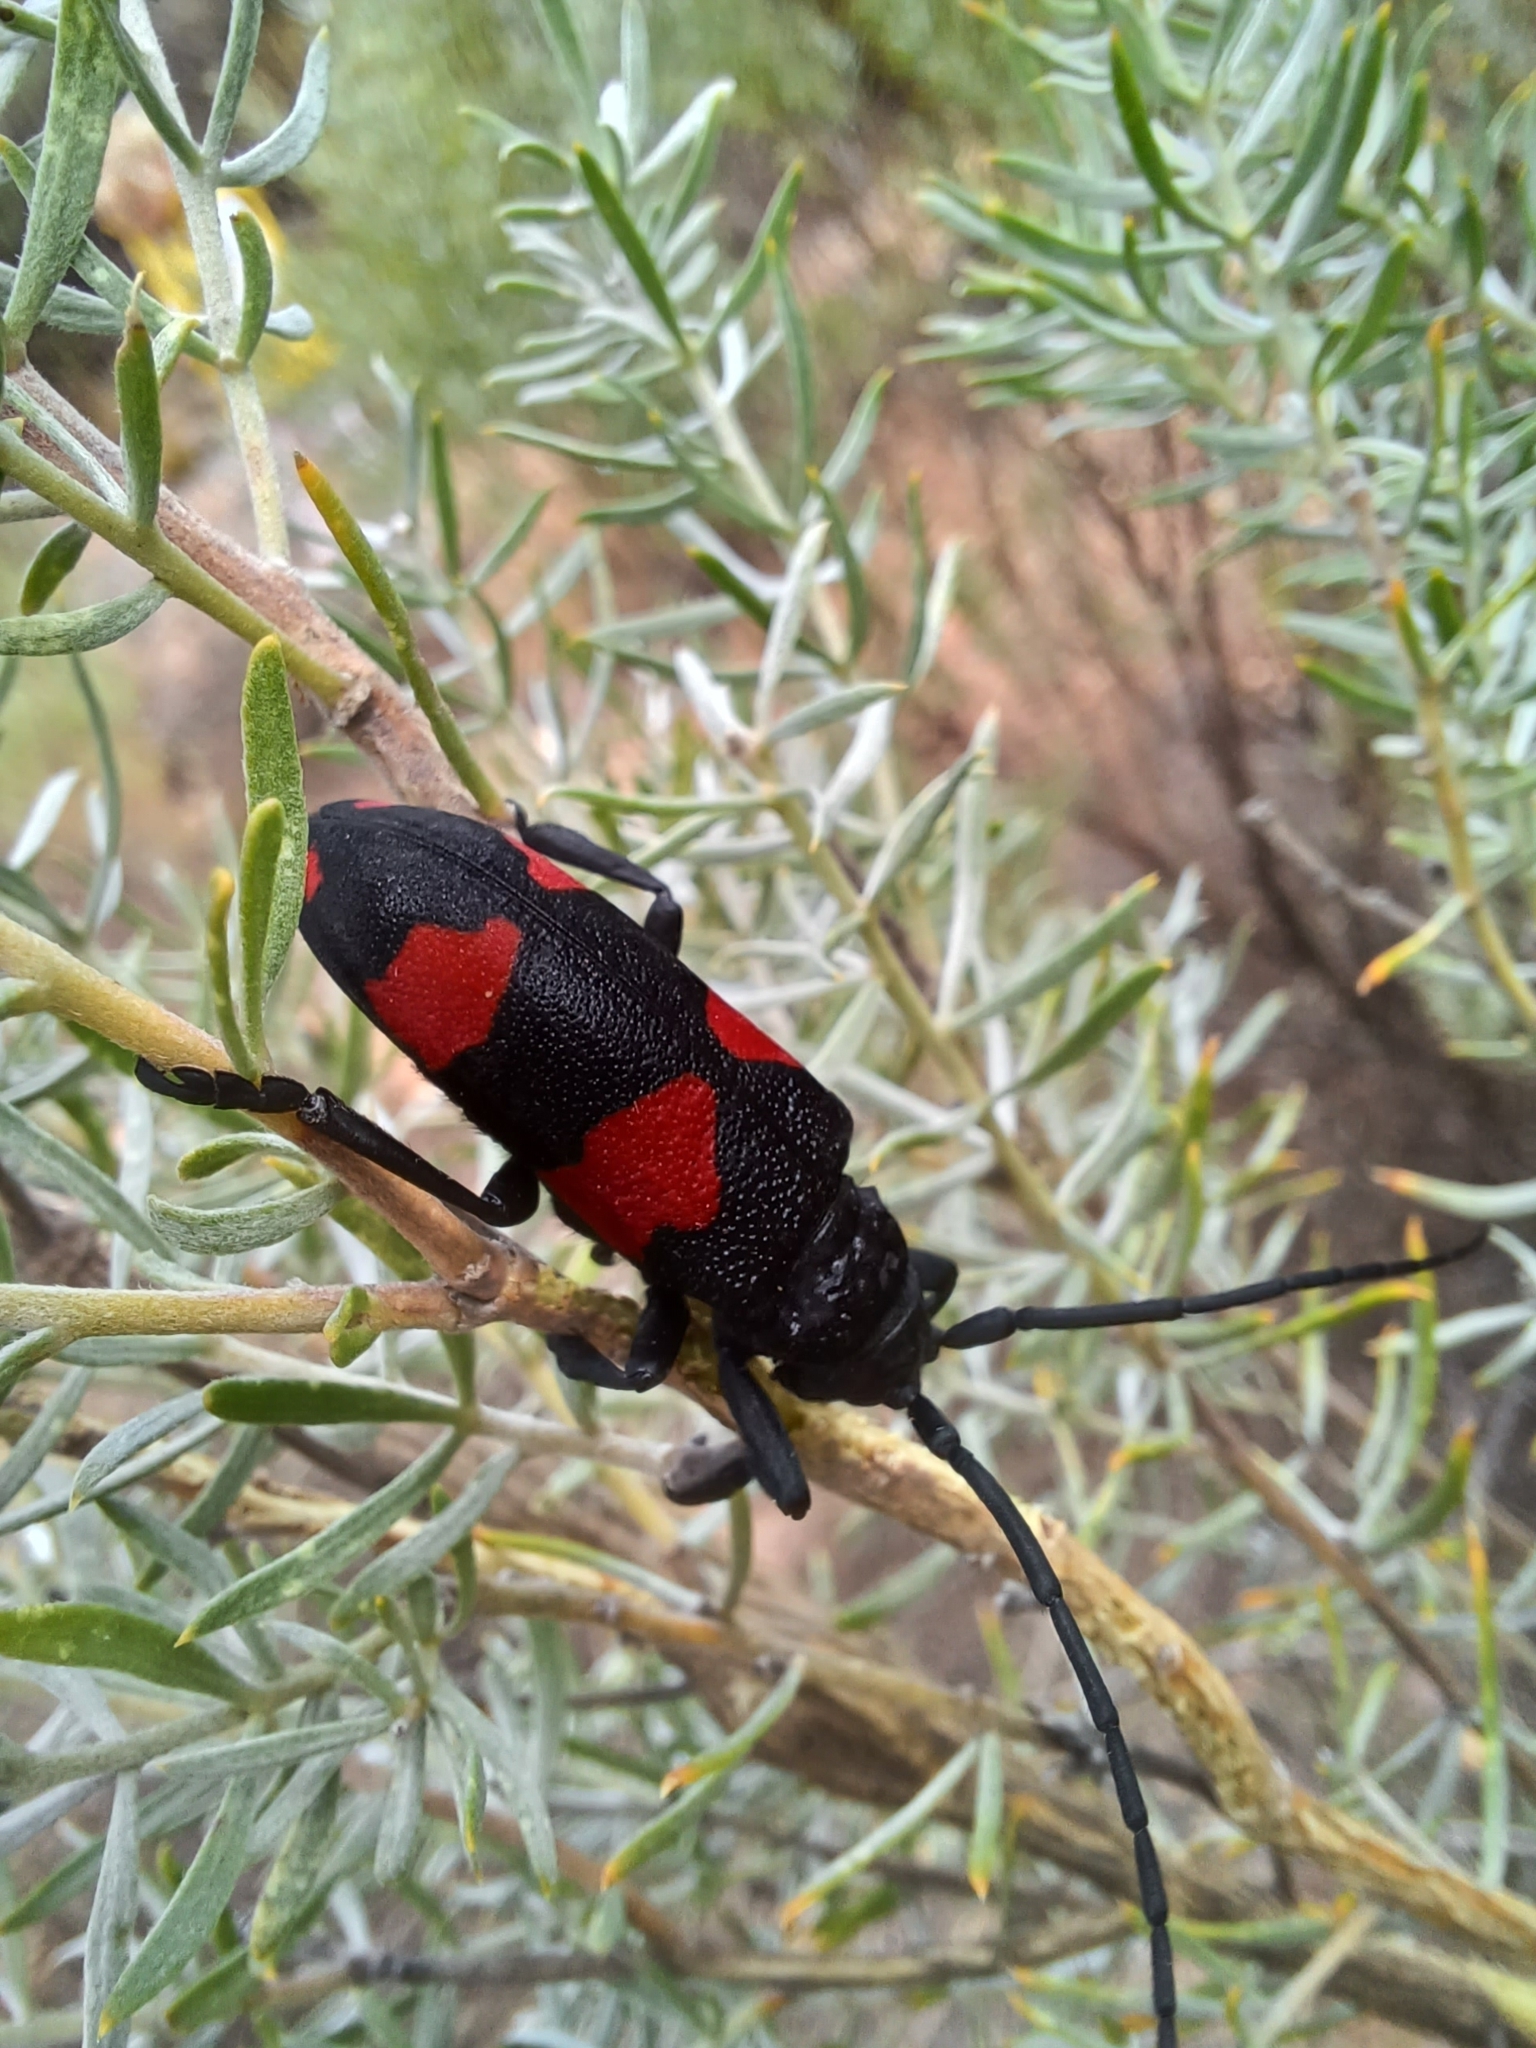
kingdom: Animalia
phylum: Arthropoda
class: Insecta
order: Coleoptera
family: Cerambycidae
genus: Ceroplesis
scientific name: Ceroplesis aethiops
